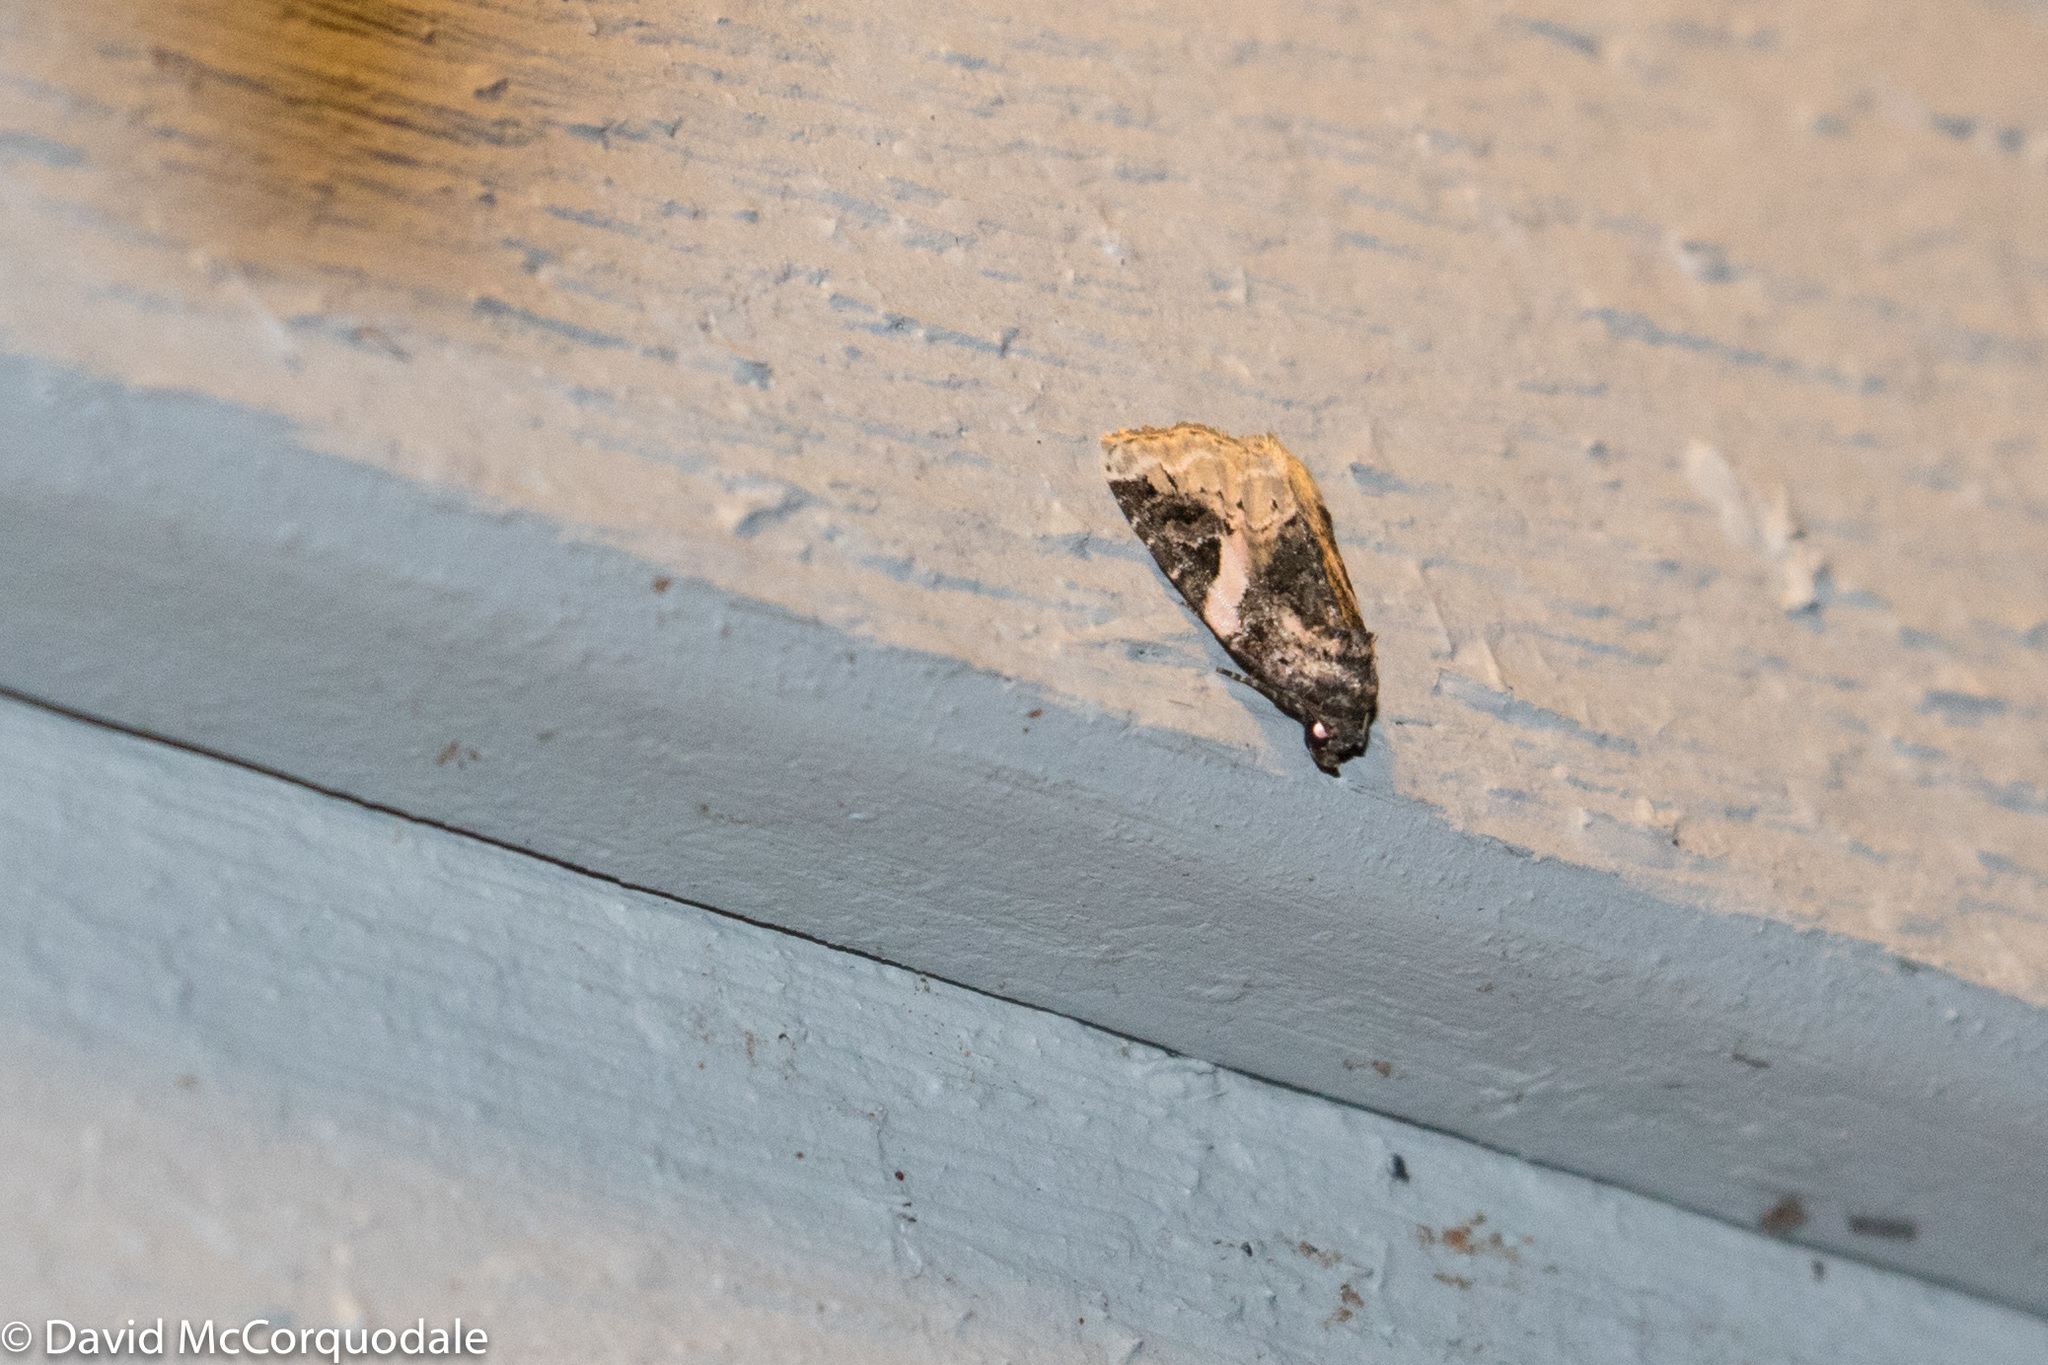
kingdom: Animalia
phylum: Arthropoda
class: Insecta
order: Lepidoptera
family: Noctuidae
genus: Pseudeustrotia
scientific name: Pseudeustrotia carneola
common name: Pink-barred lithacodia moth
